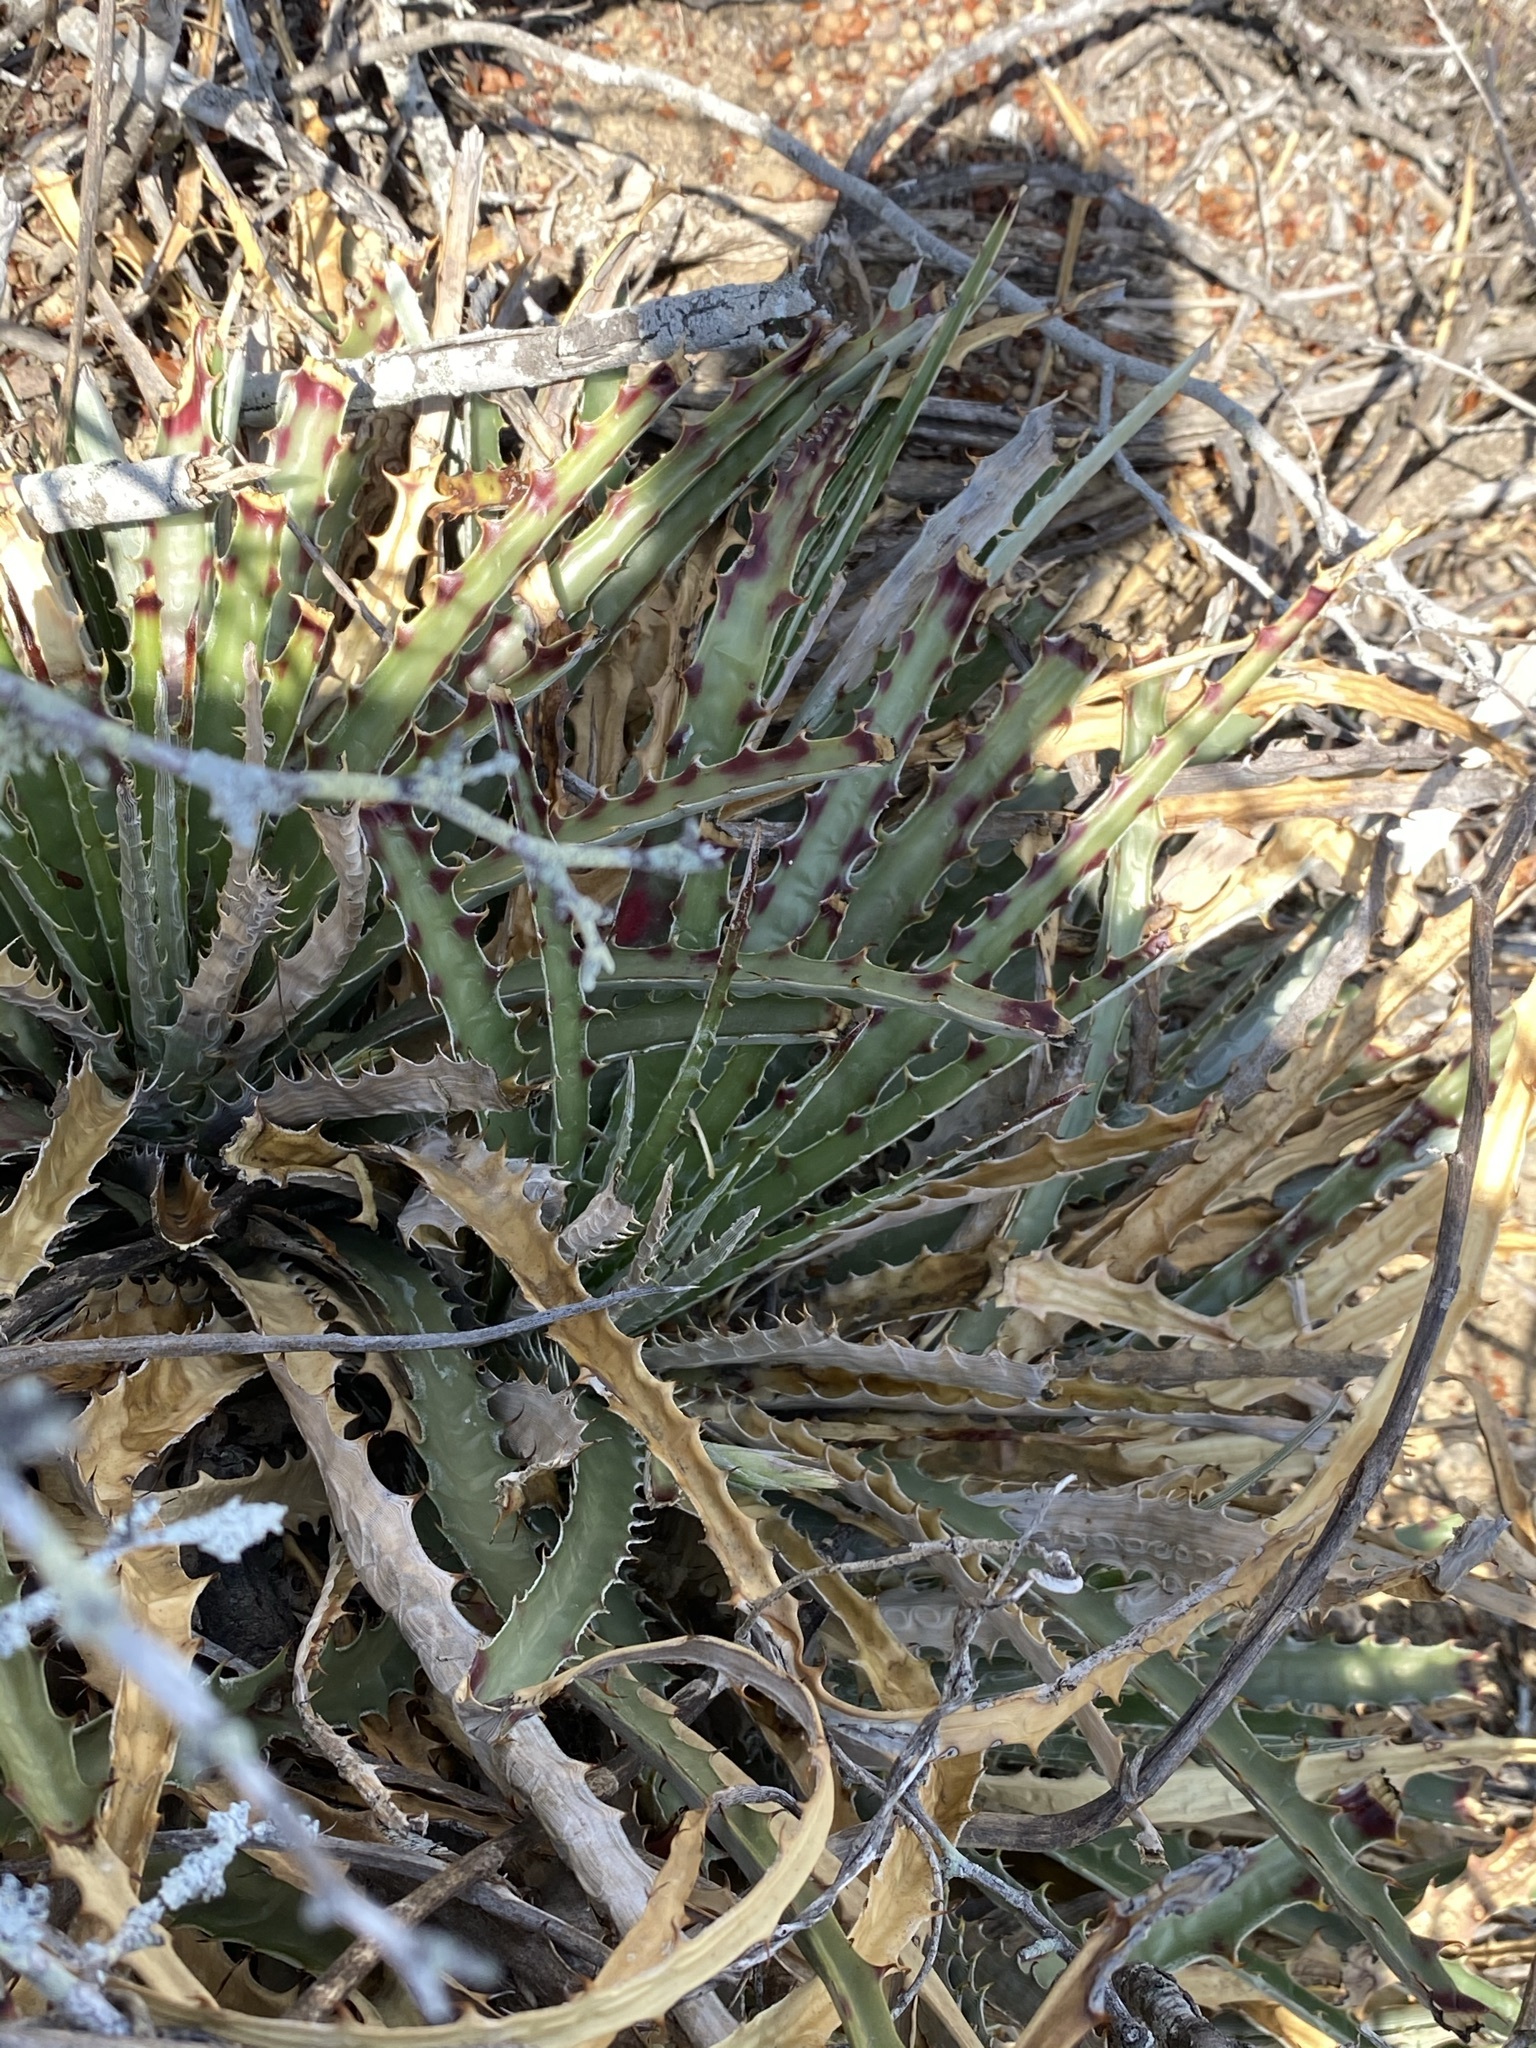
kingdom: Plantae
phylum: Tracheophyta
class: Liliopsida
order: Poales
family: Bromeliaceae
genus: Hechtia
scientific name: Hechtia glomerata
